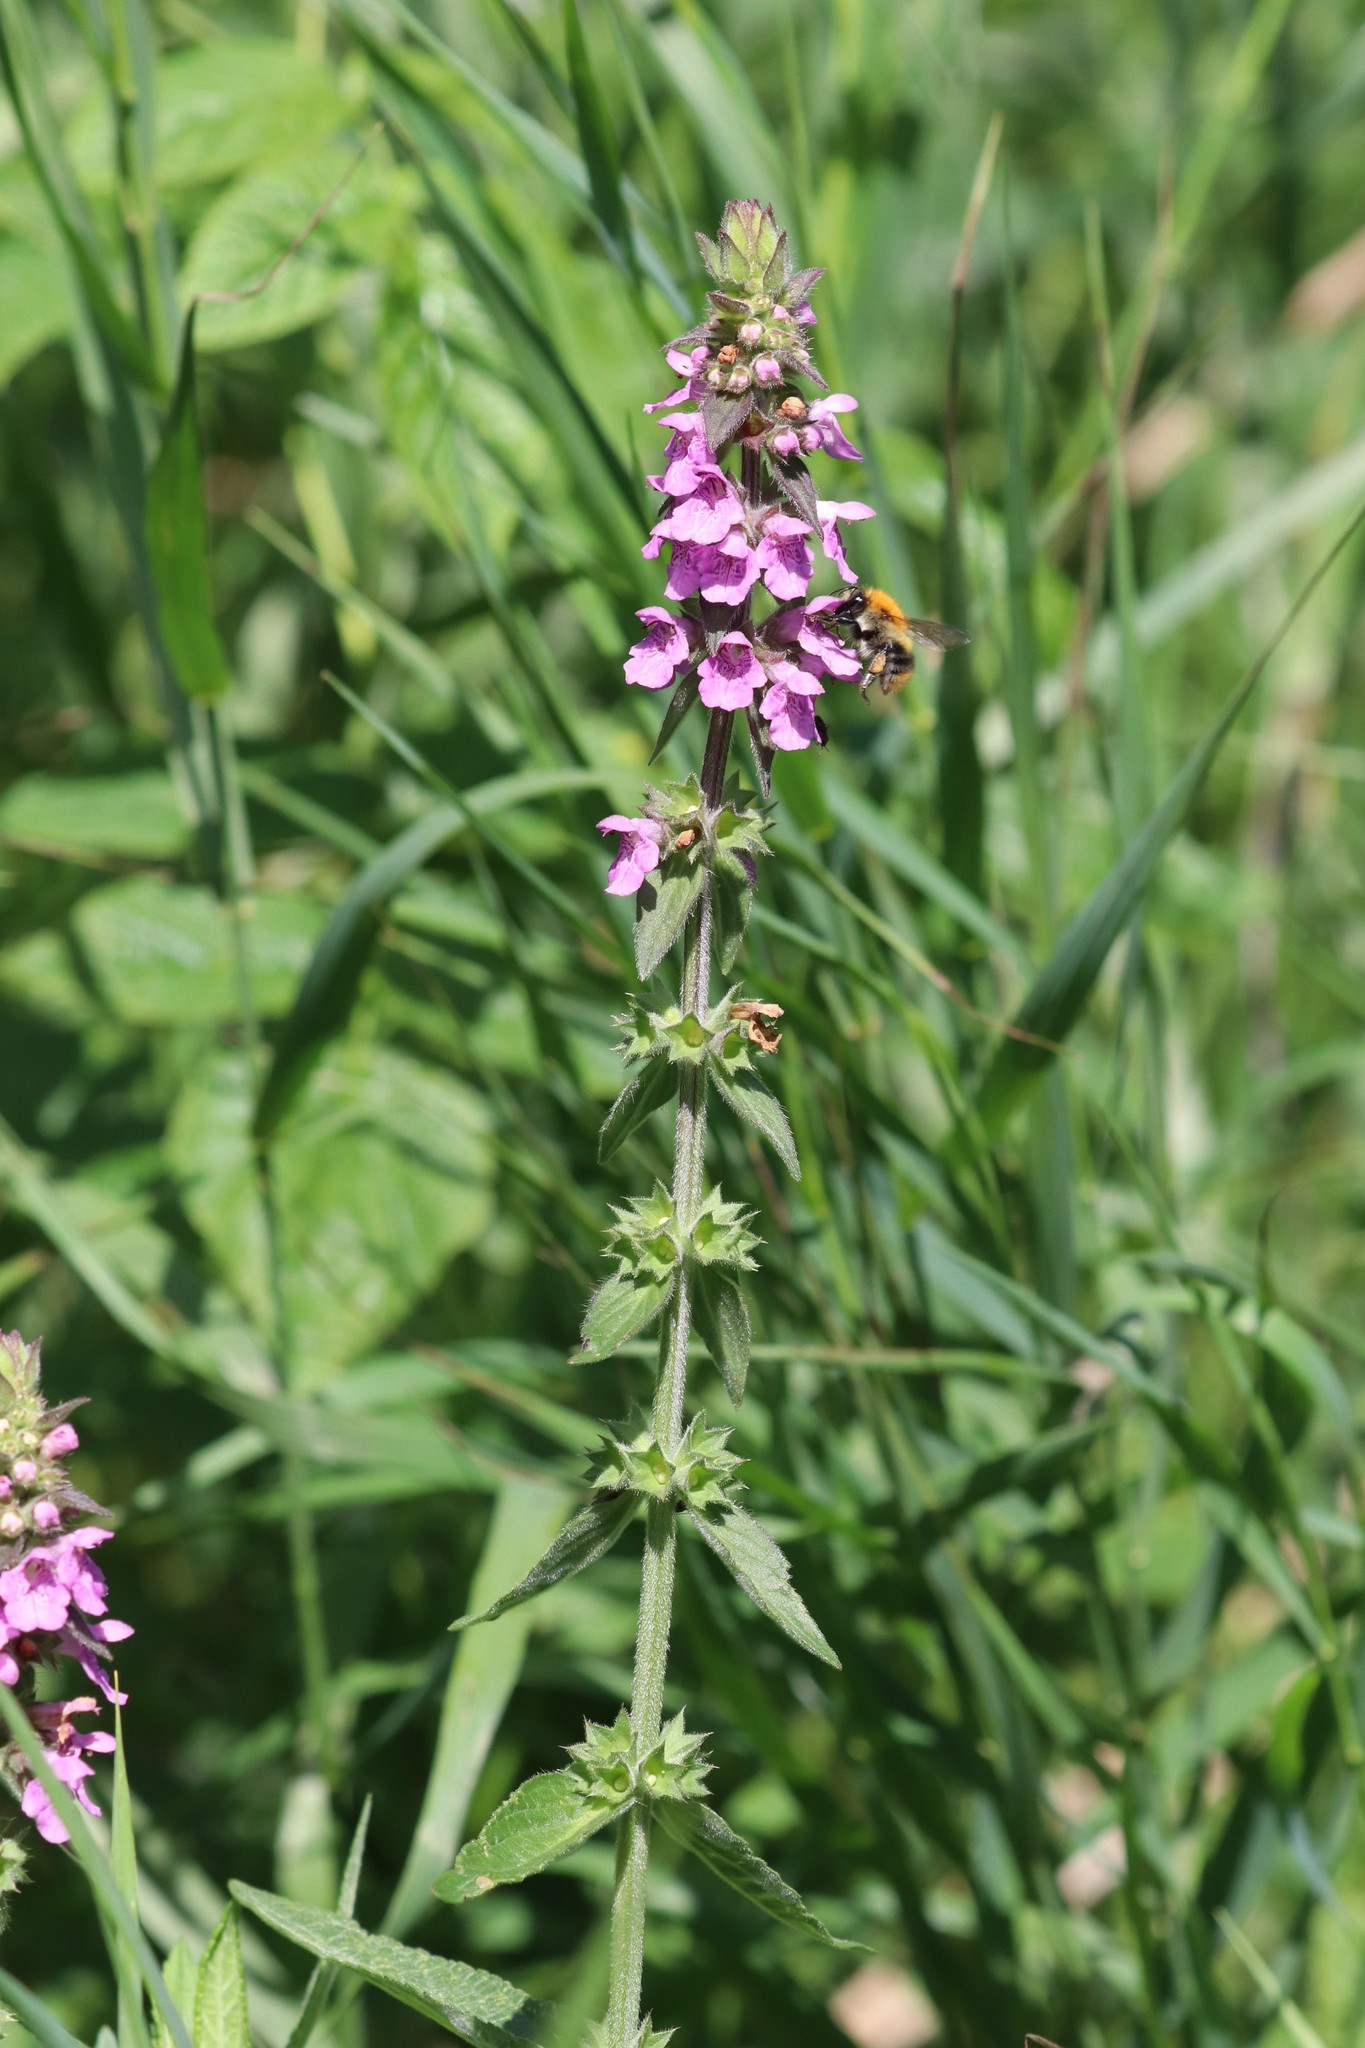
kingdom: Plantae
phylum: Tracheophyta
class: Magnoliopsida
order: Lamiales
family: Lamiaceae
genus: Stachys
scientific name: Stachys palustris
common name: Marsh woundwort
